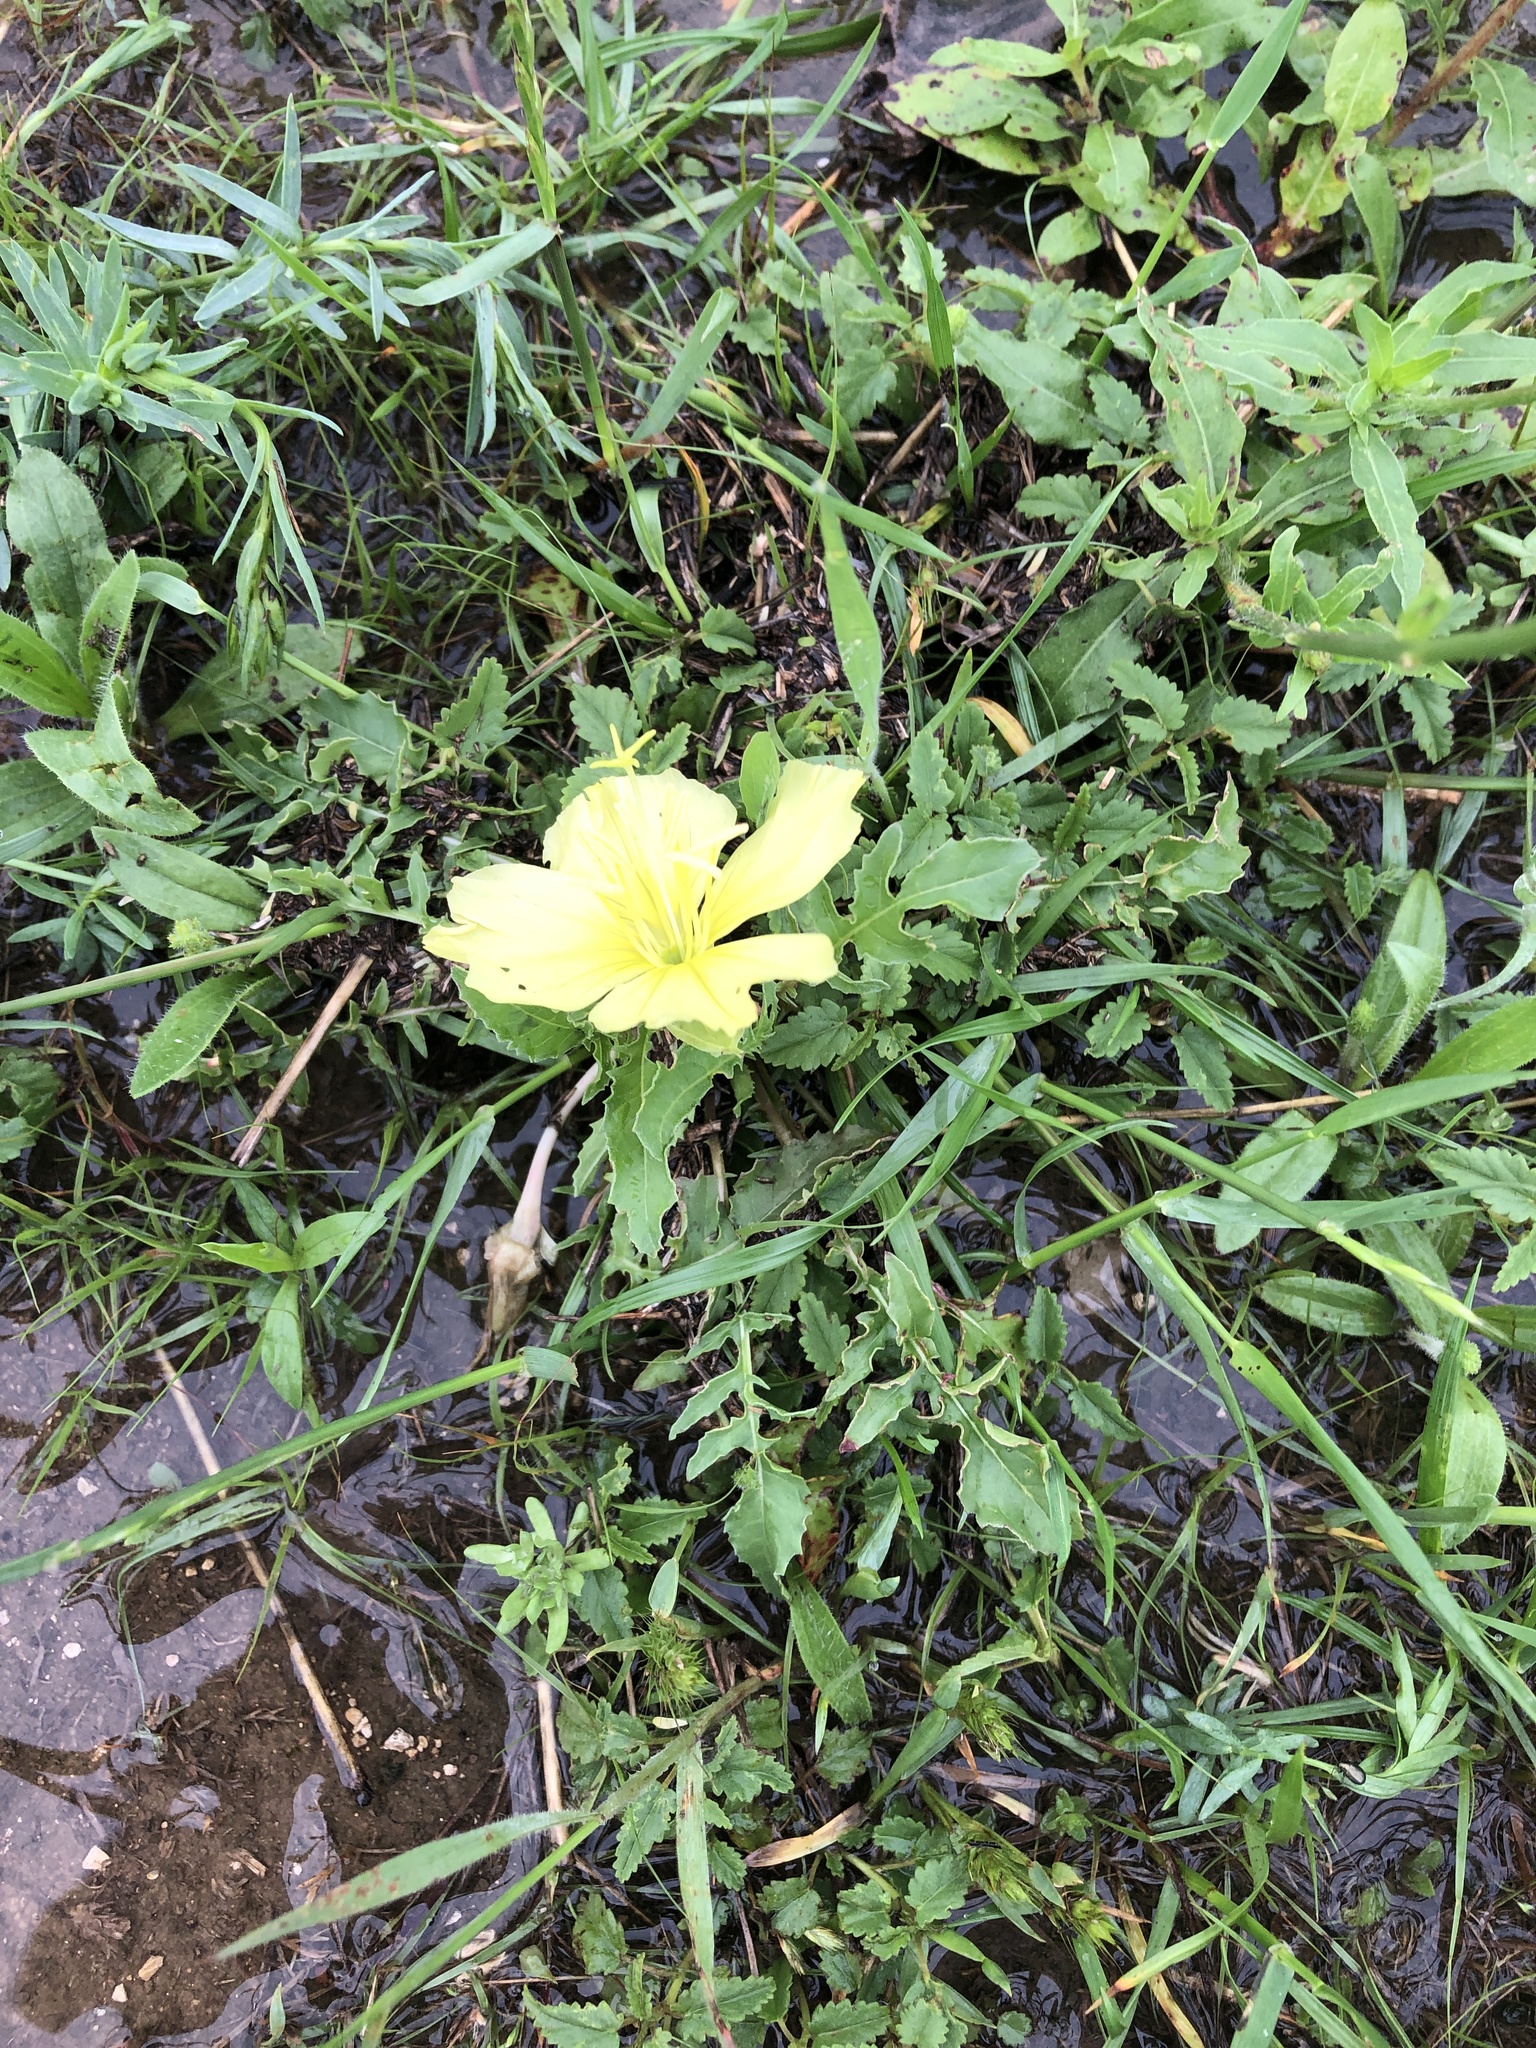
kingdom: Plantae
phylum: Tracheophyta
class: Magnoliopsida
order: Myrtales
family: Onagraceae
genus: Oenothera
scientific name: Oenothera triloba
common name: Sessile evening-primrose
